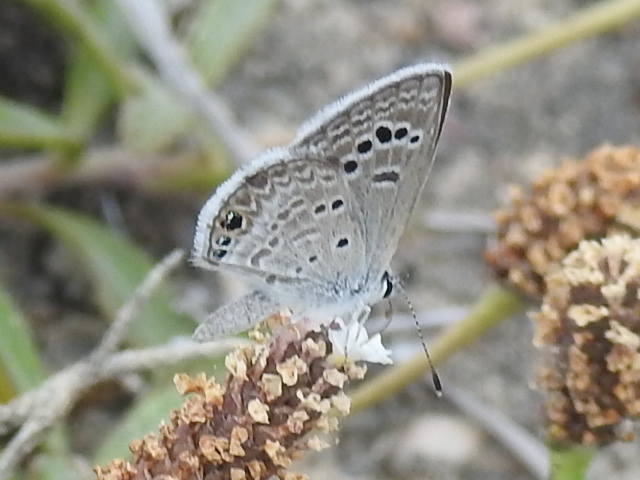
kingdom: Animalia
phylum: Arthropoda
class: Insecta
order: Lepidoptera
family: Lycaenidae
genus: Echinargus
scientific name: Echinargus isola
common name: Reakirt's blue
